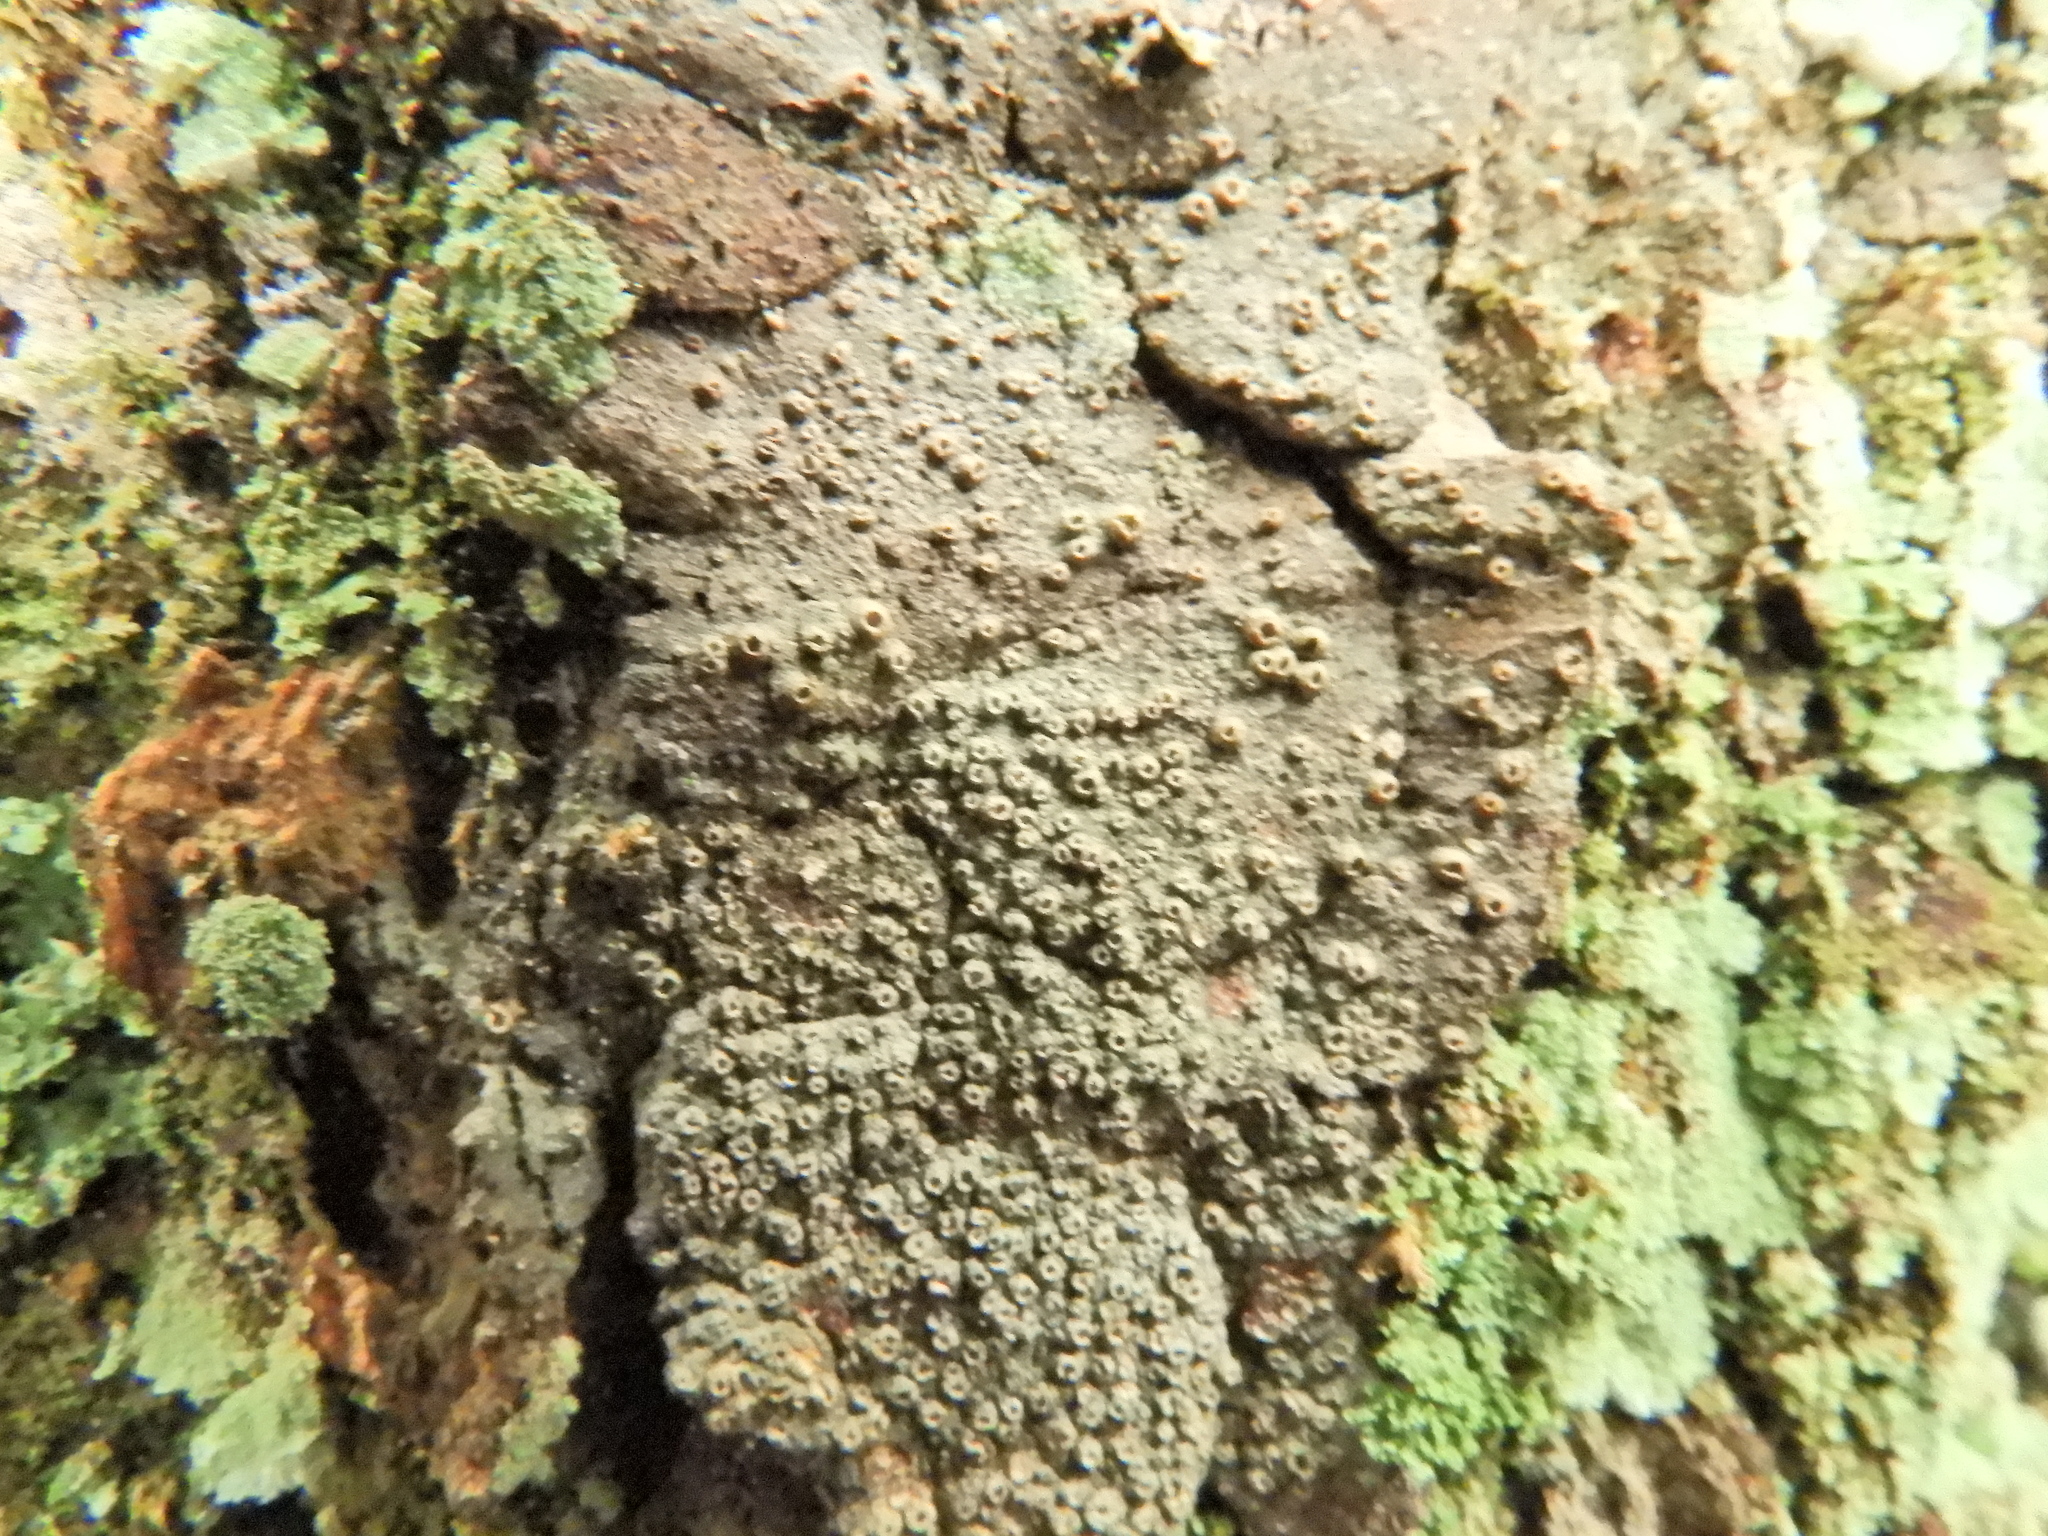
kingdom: Fungi
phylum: Ascomycota
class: Lecanoromycetes
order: Ostropales
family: Graphidaceae
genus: Thelotrema
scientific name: Thelotrema lepadinum
